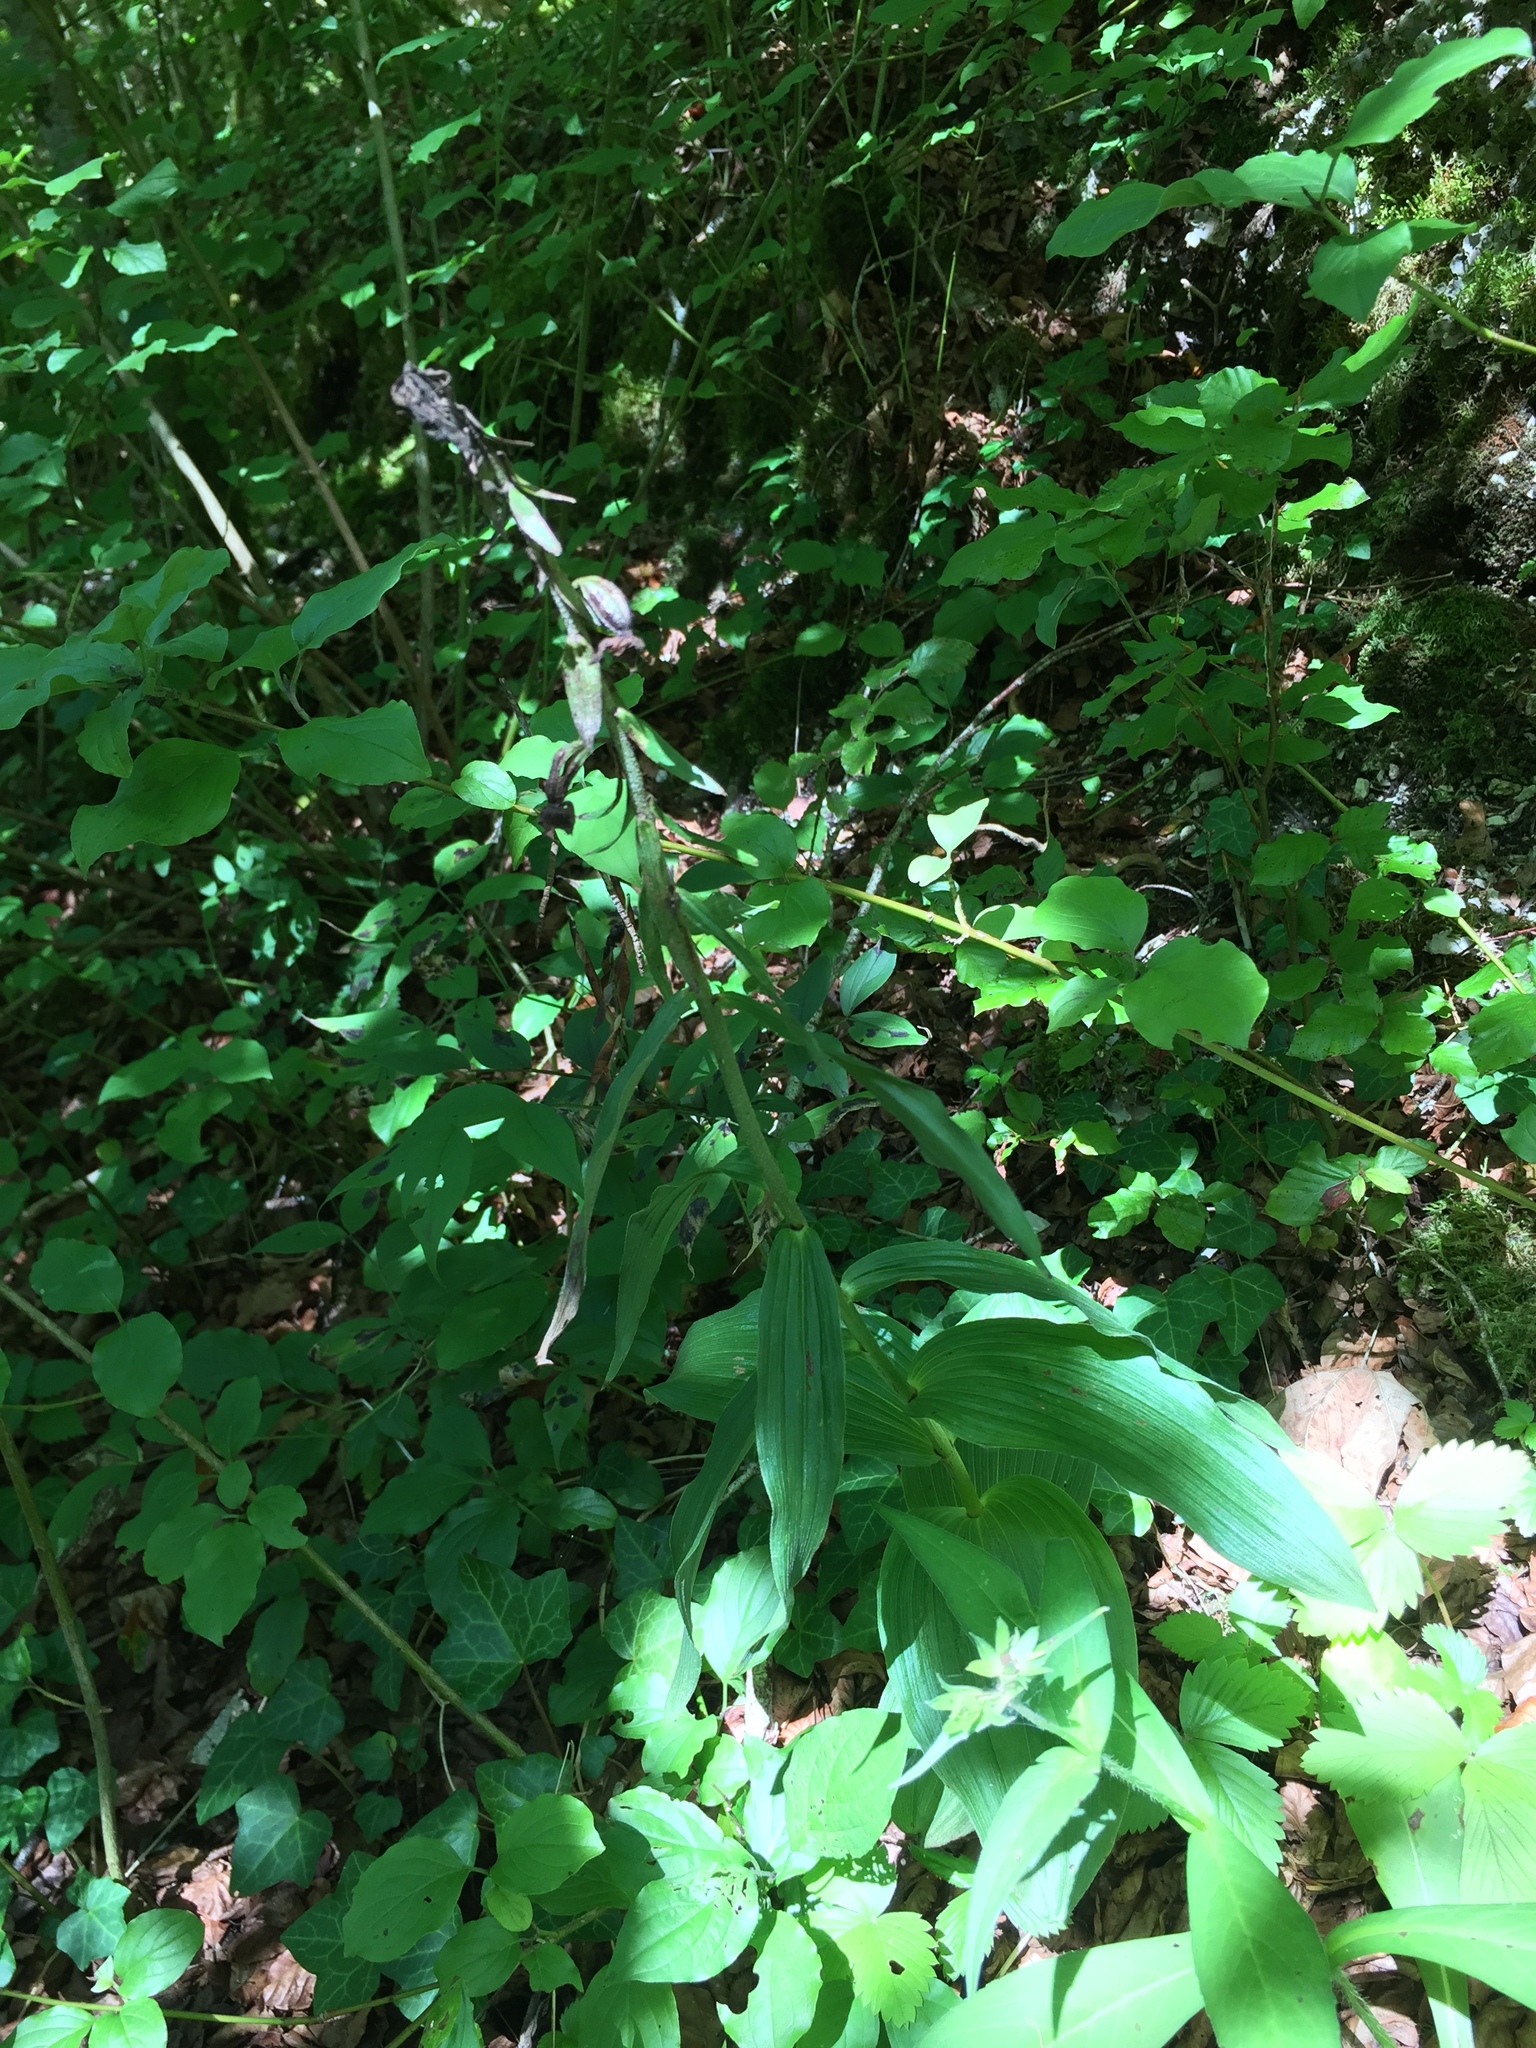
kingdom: Plantae
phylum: Tracheophyta
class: Liliopsida
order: Asparagales
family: Orchidaceae
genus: Epipactis
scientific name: Epipactis helleborine
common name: Broad-leaved helleborine
